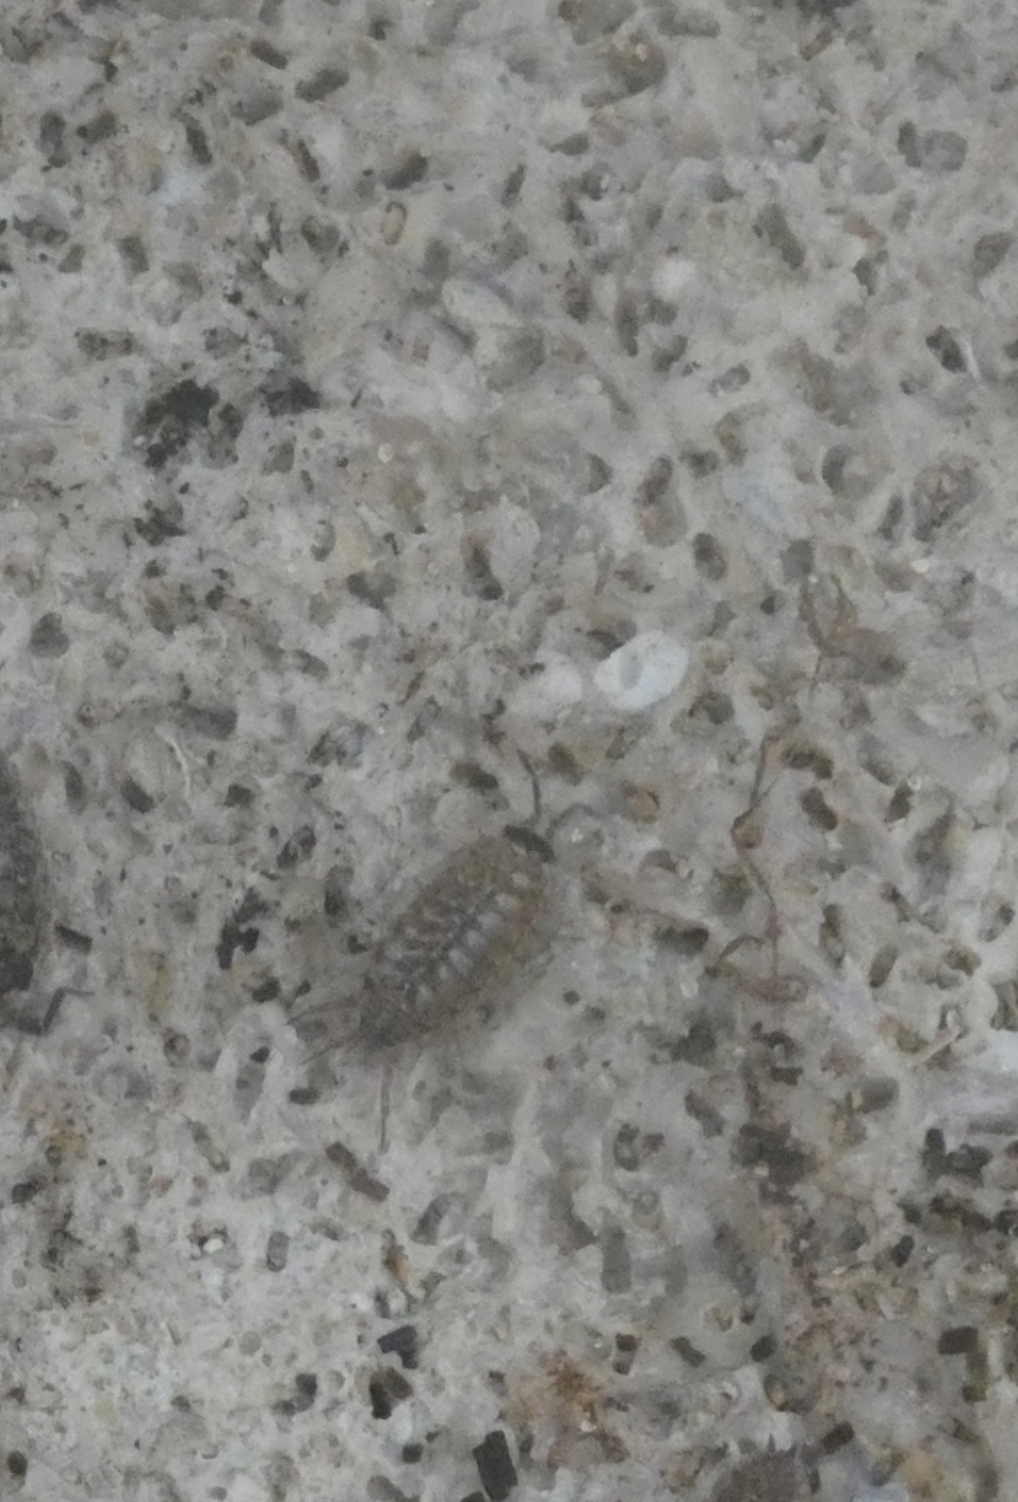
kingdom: Animalia
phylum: Arthropoda
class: Malacostraca
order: Isopoda
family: Philosciidae
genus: Philoscia
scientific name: Philoscia muscorum
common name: Common striped woodlouse
